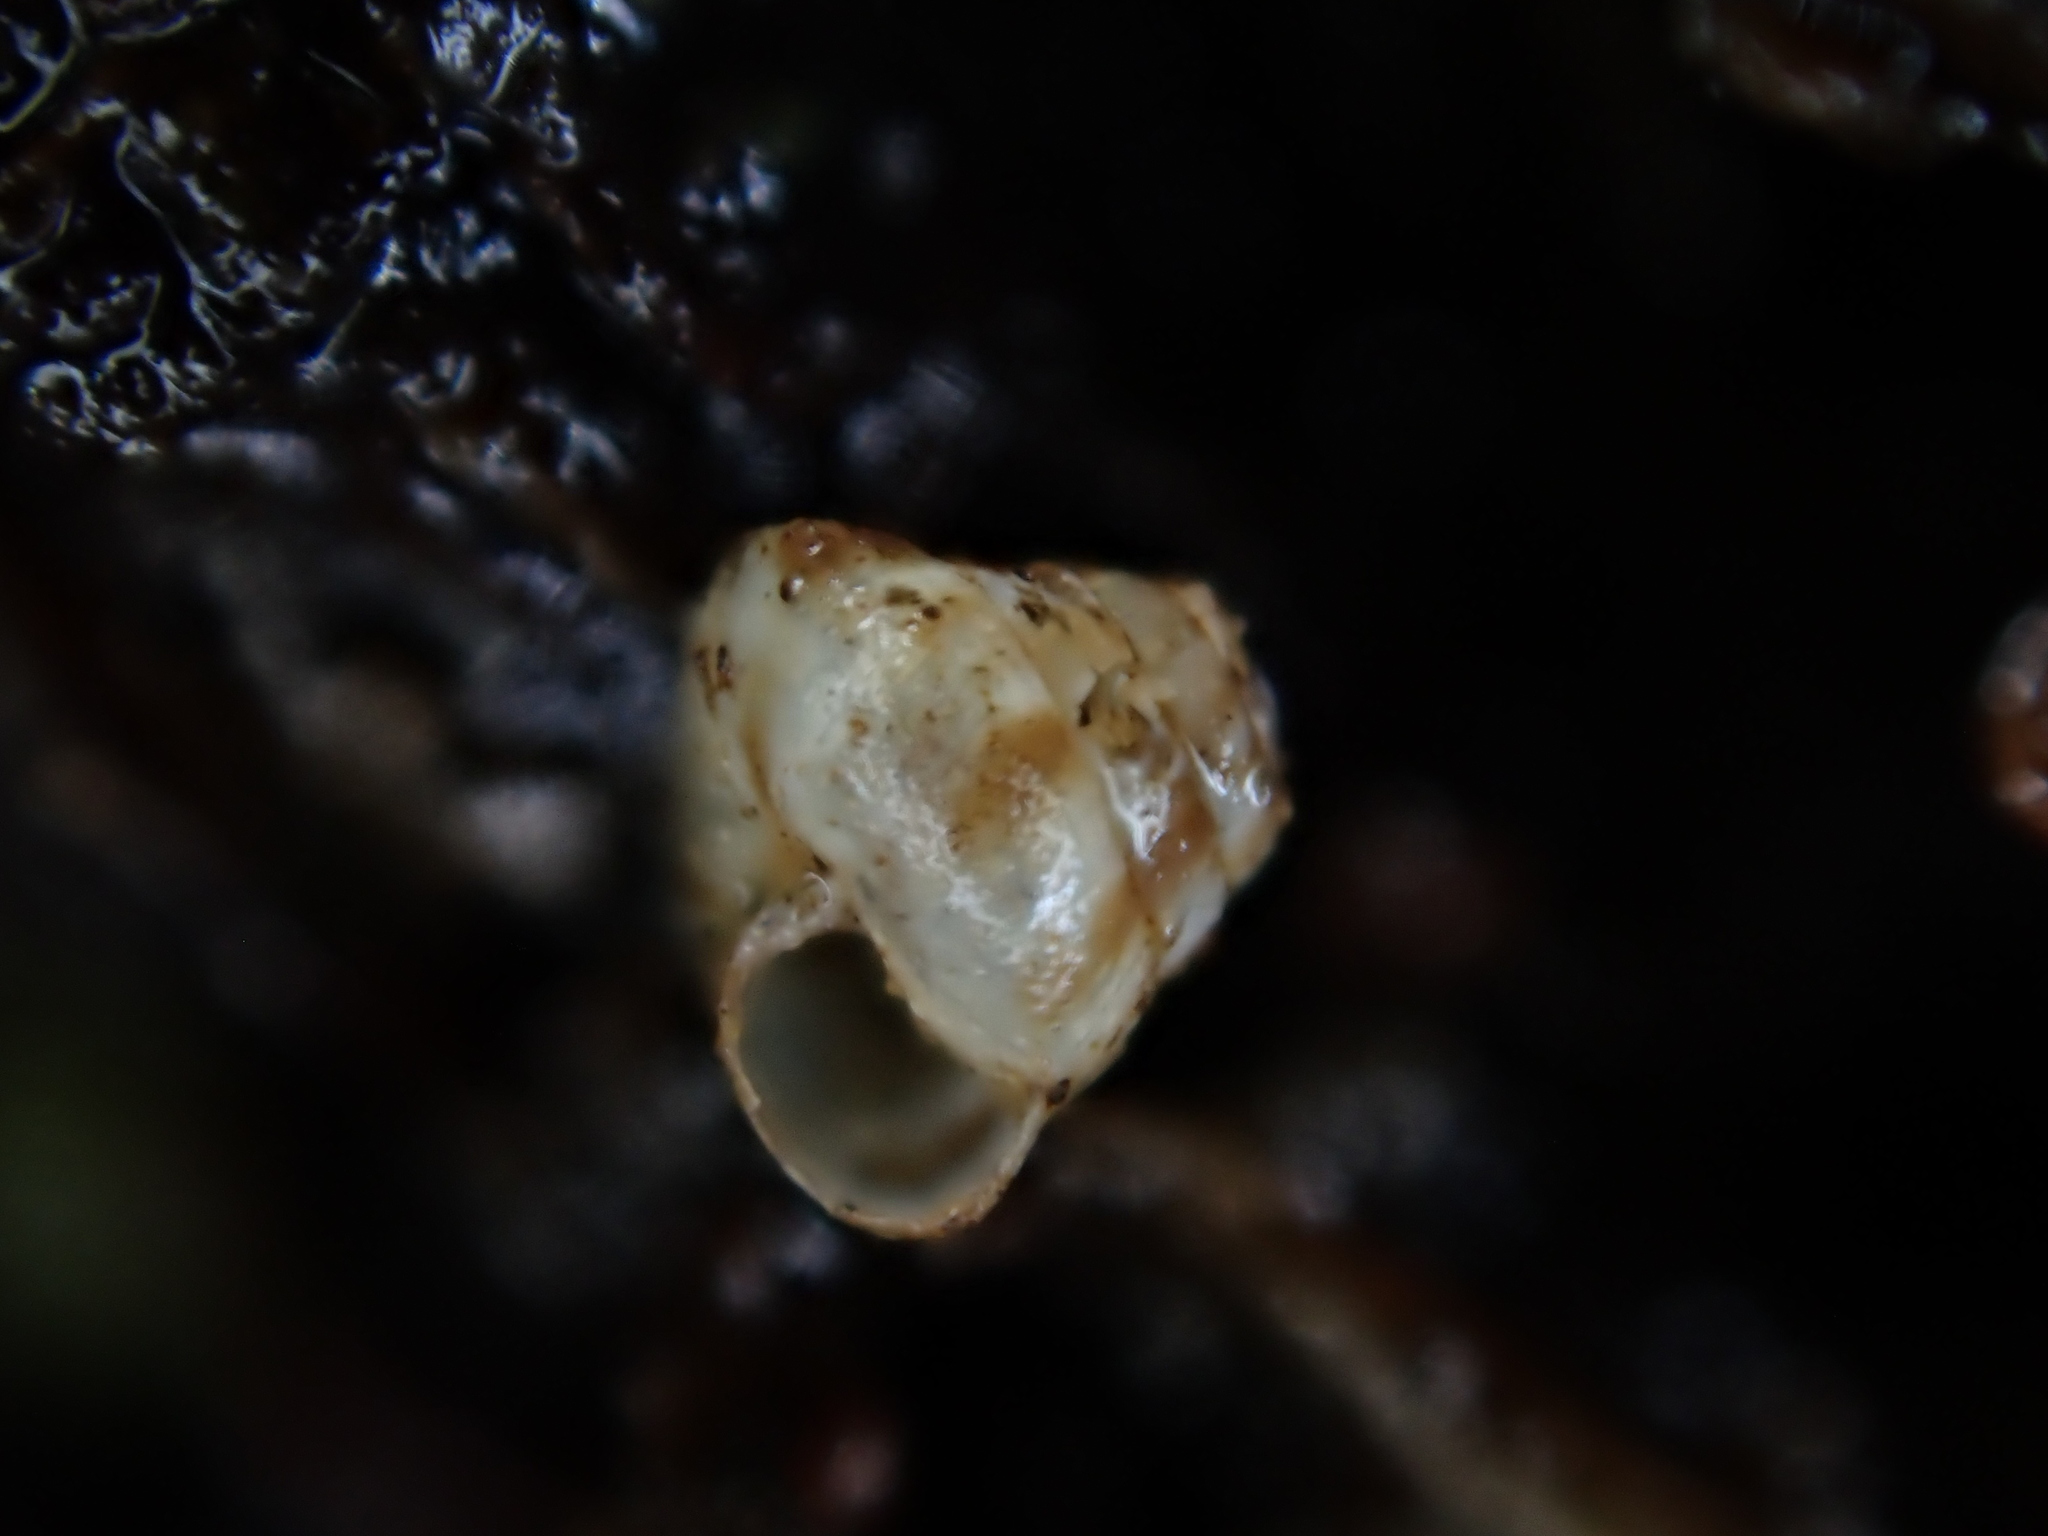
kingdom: Animalia
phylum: Mollusca
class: Gastropoda
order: Stylommatophora
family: Punctidae
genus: Phrixgnathus
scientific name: Phrixgnathus erigone
